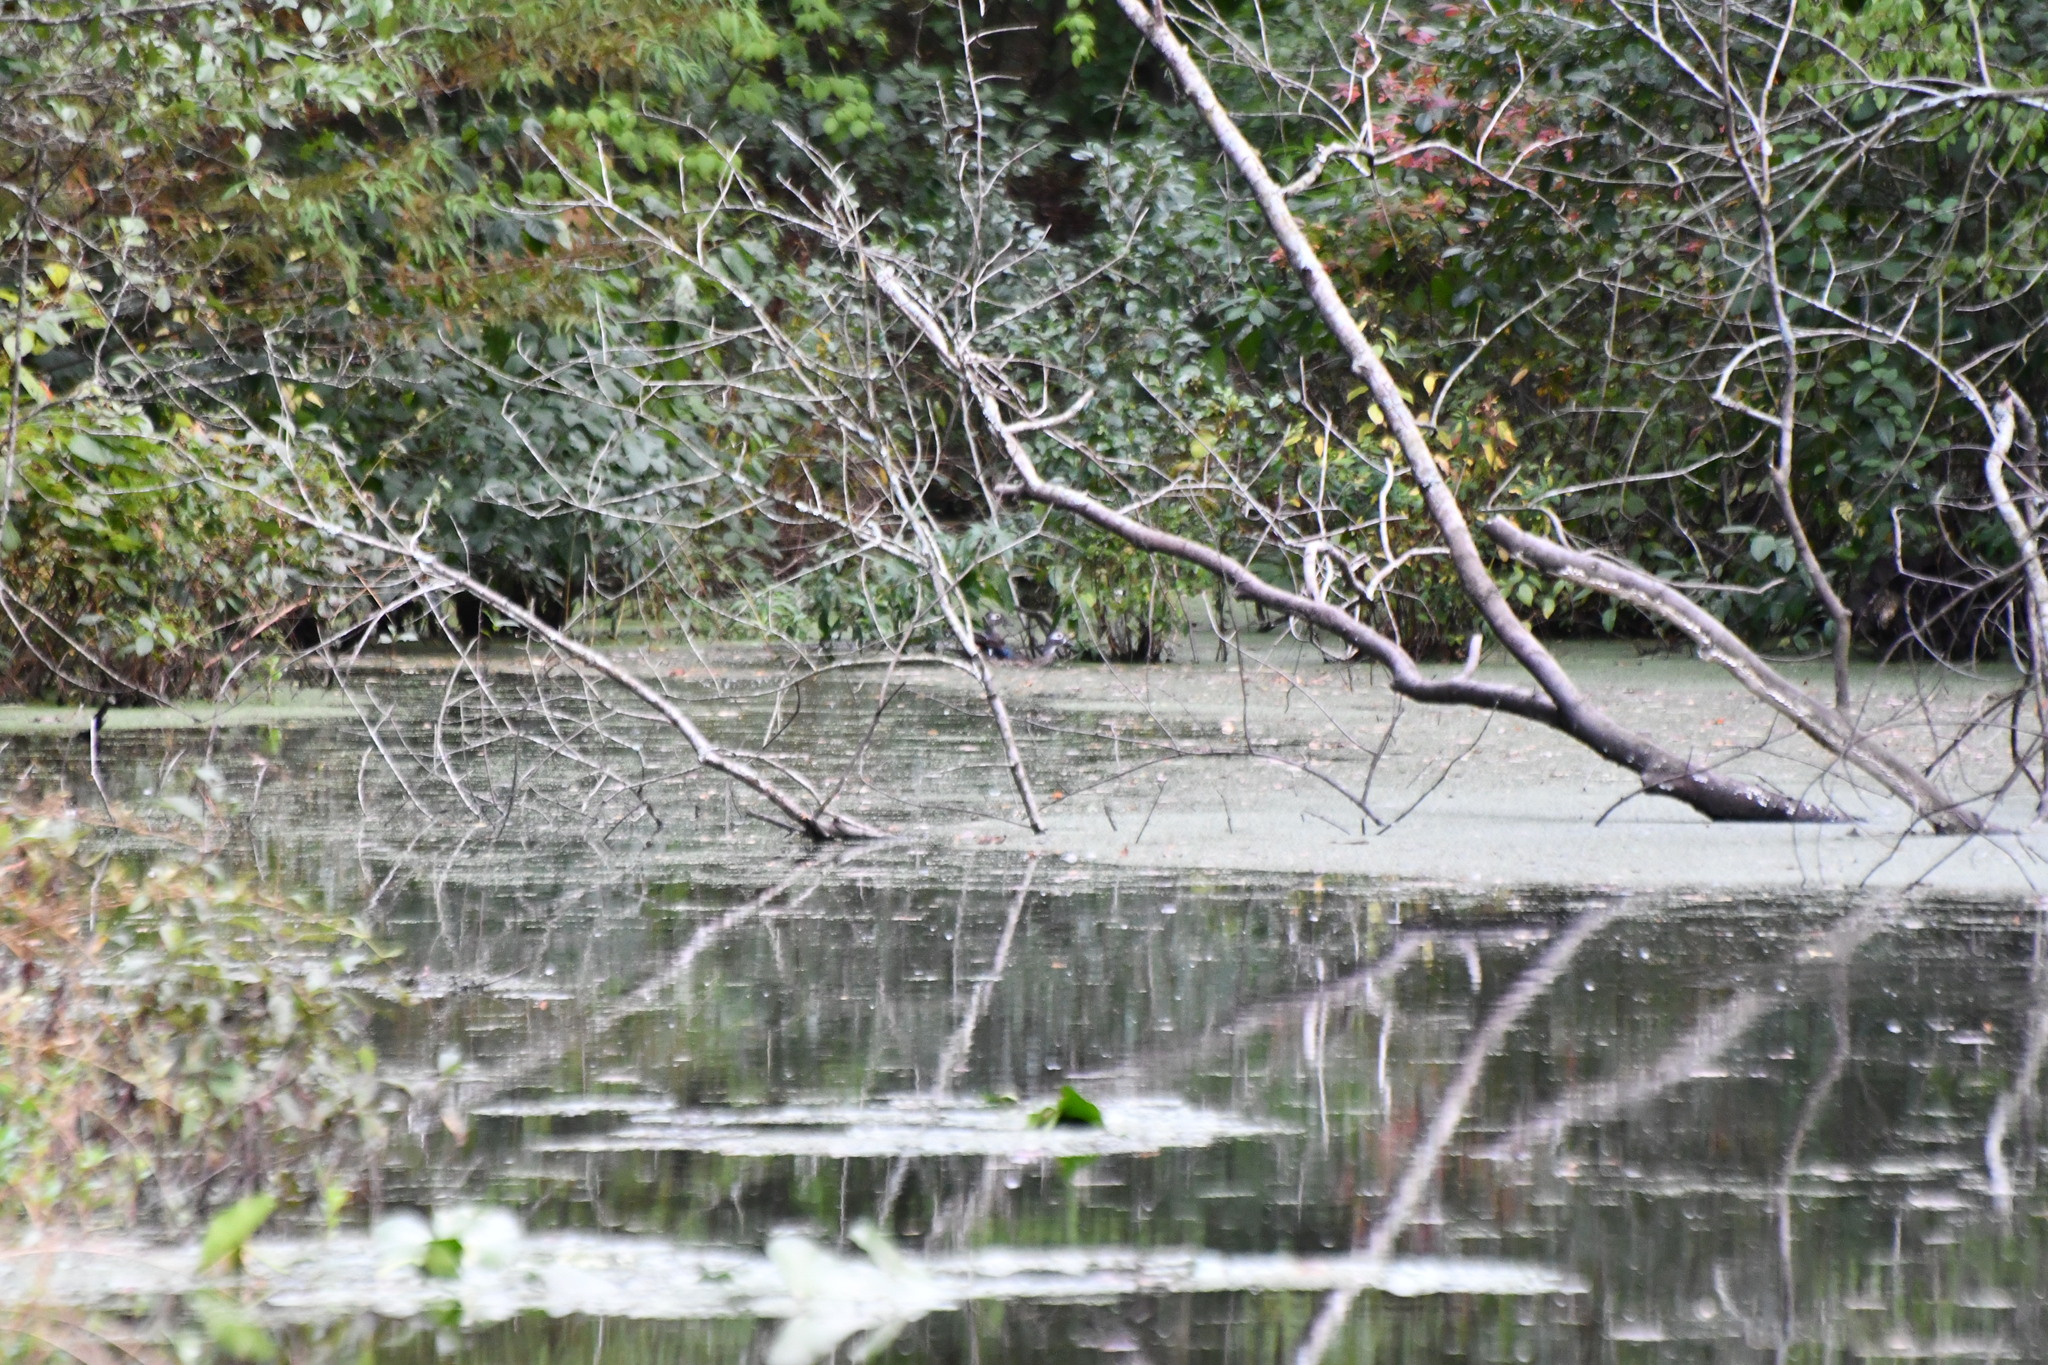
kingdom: Animalia
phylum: Chordata
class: Aves
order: Anseriformes
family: Anatidae
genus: Aix
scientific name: Aix sponsa
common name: Wood duck
